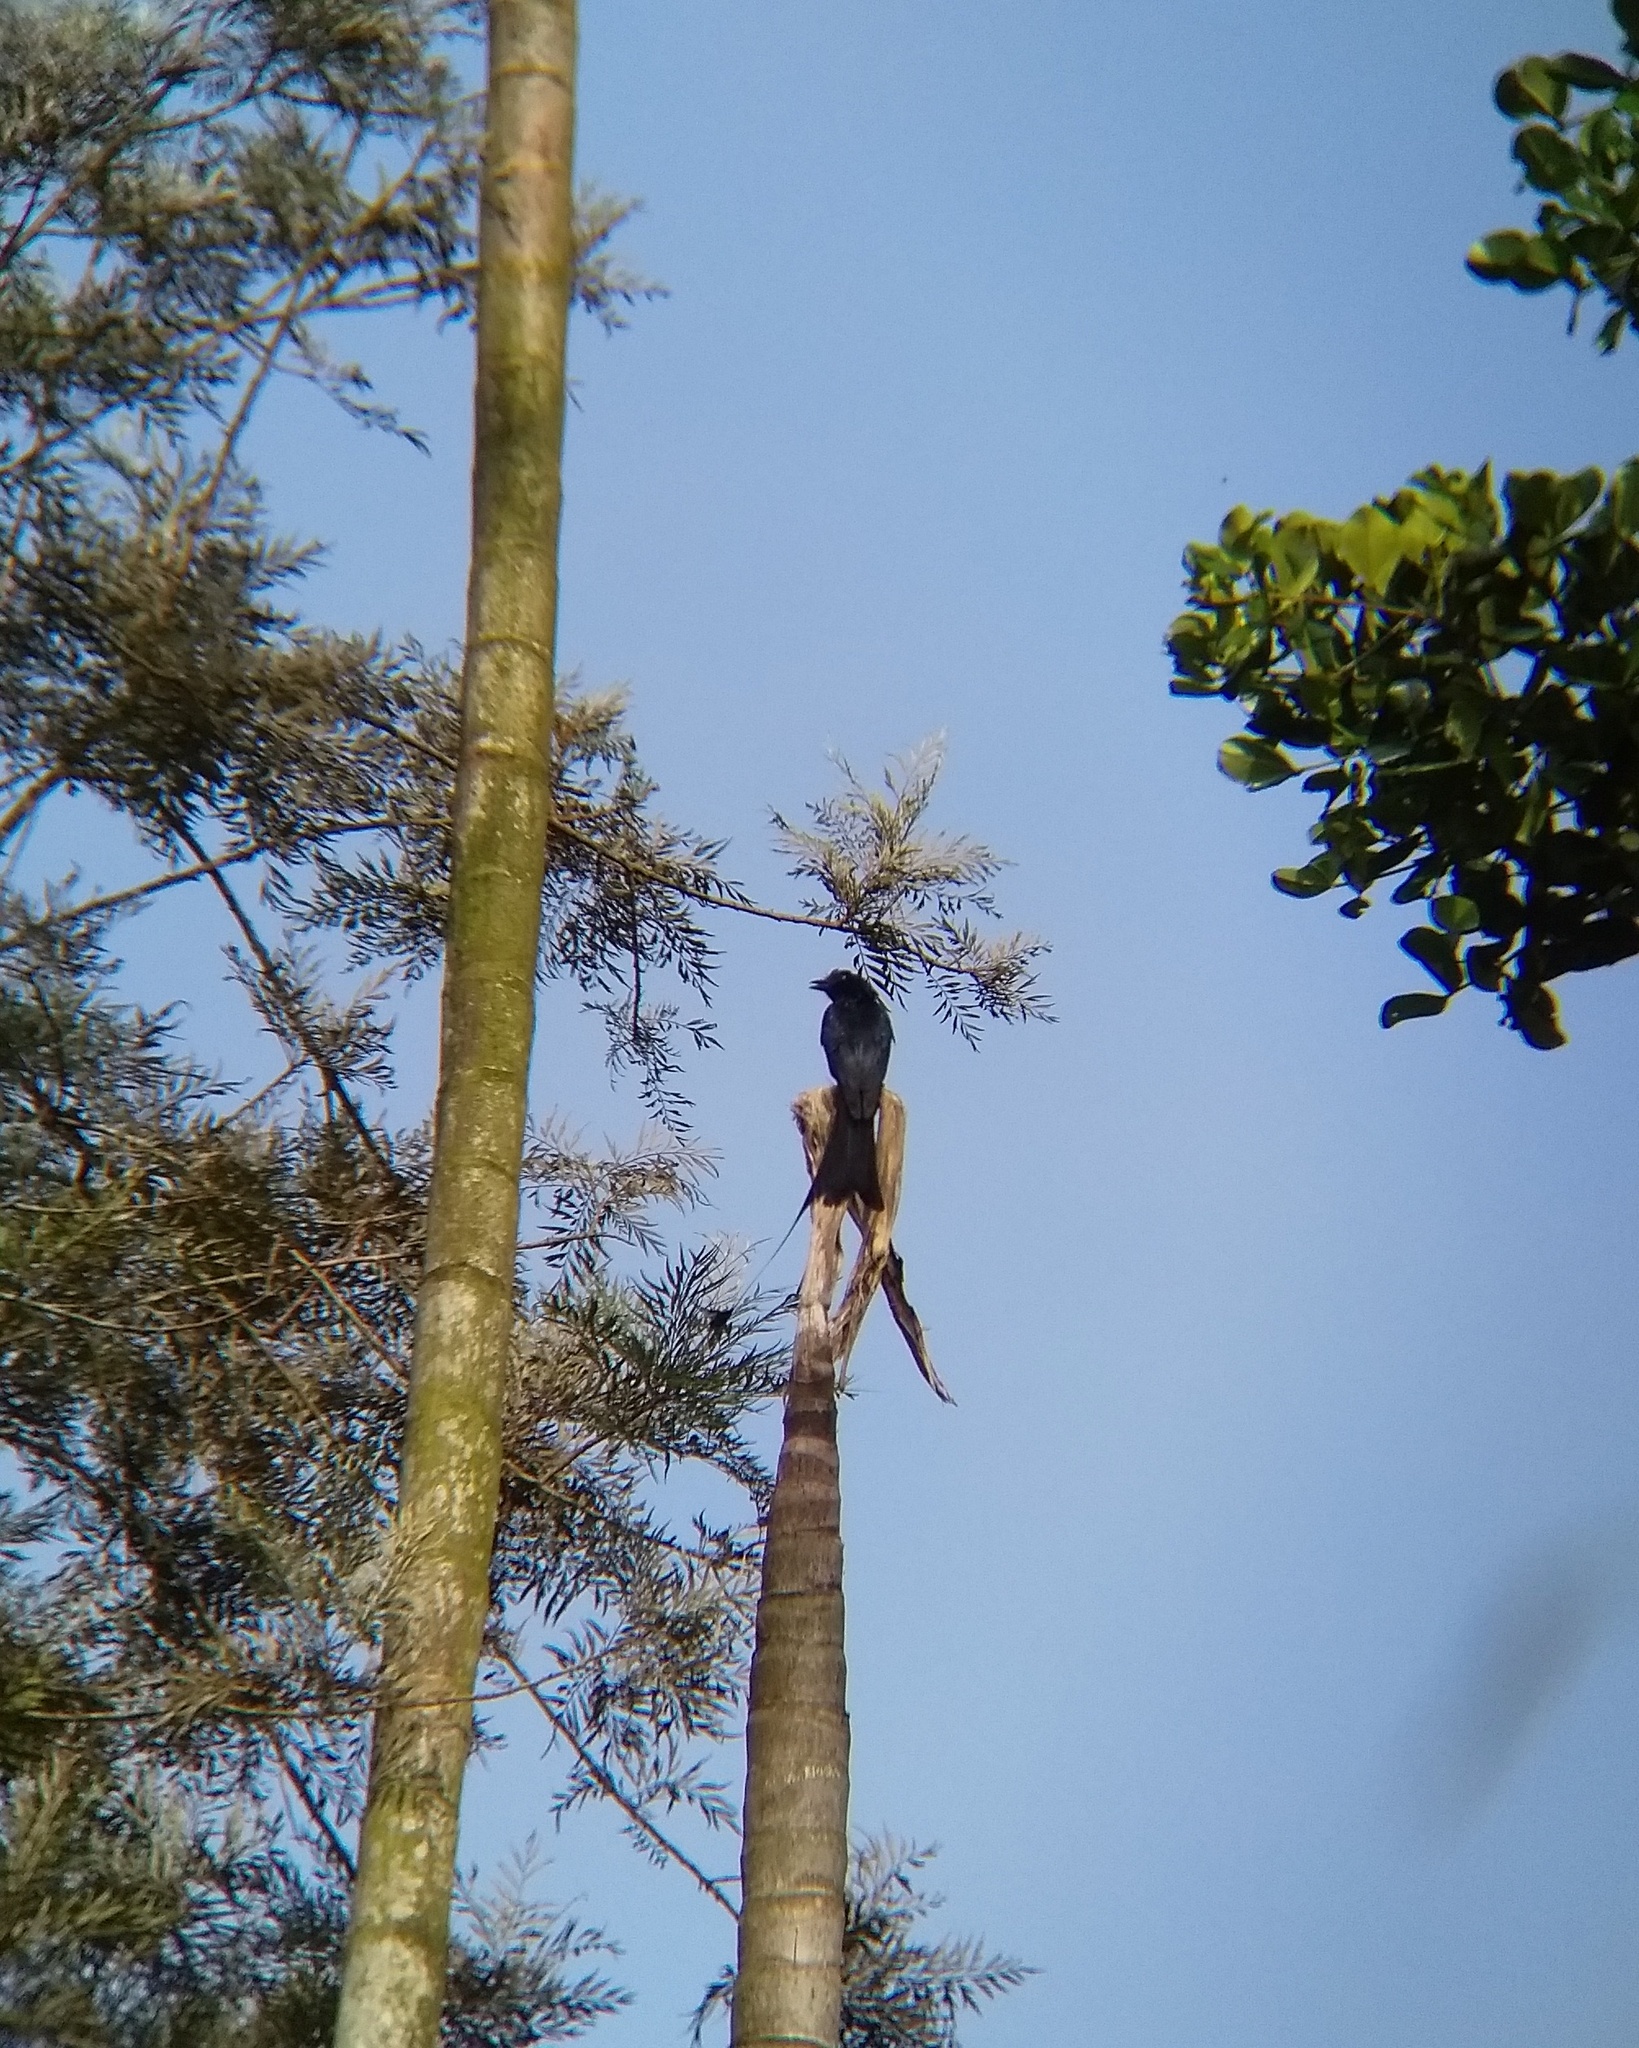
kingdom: Animalia
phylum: Chordata
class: Aves
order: Passeriformes
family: Dicruridae
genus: Dicrurus
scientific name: Dicrurus paradiseus
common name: Greater racket-tailed drongo
